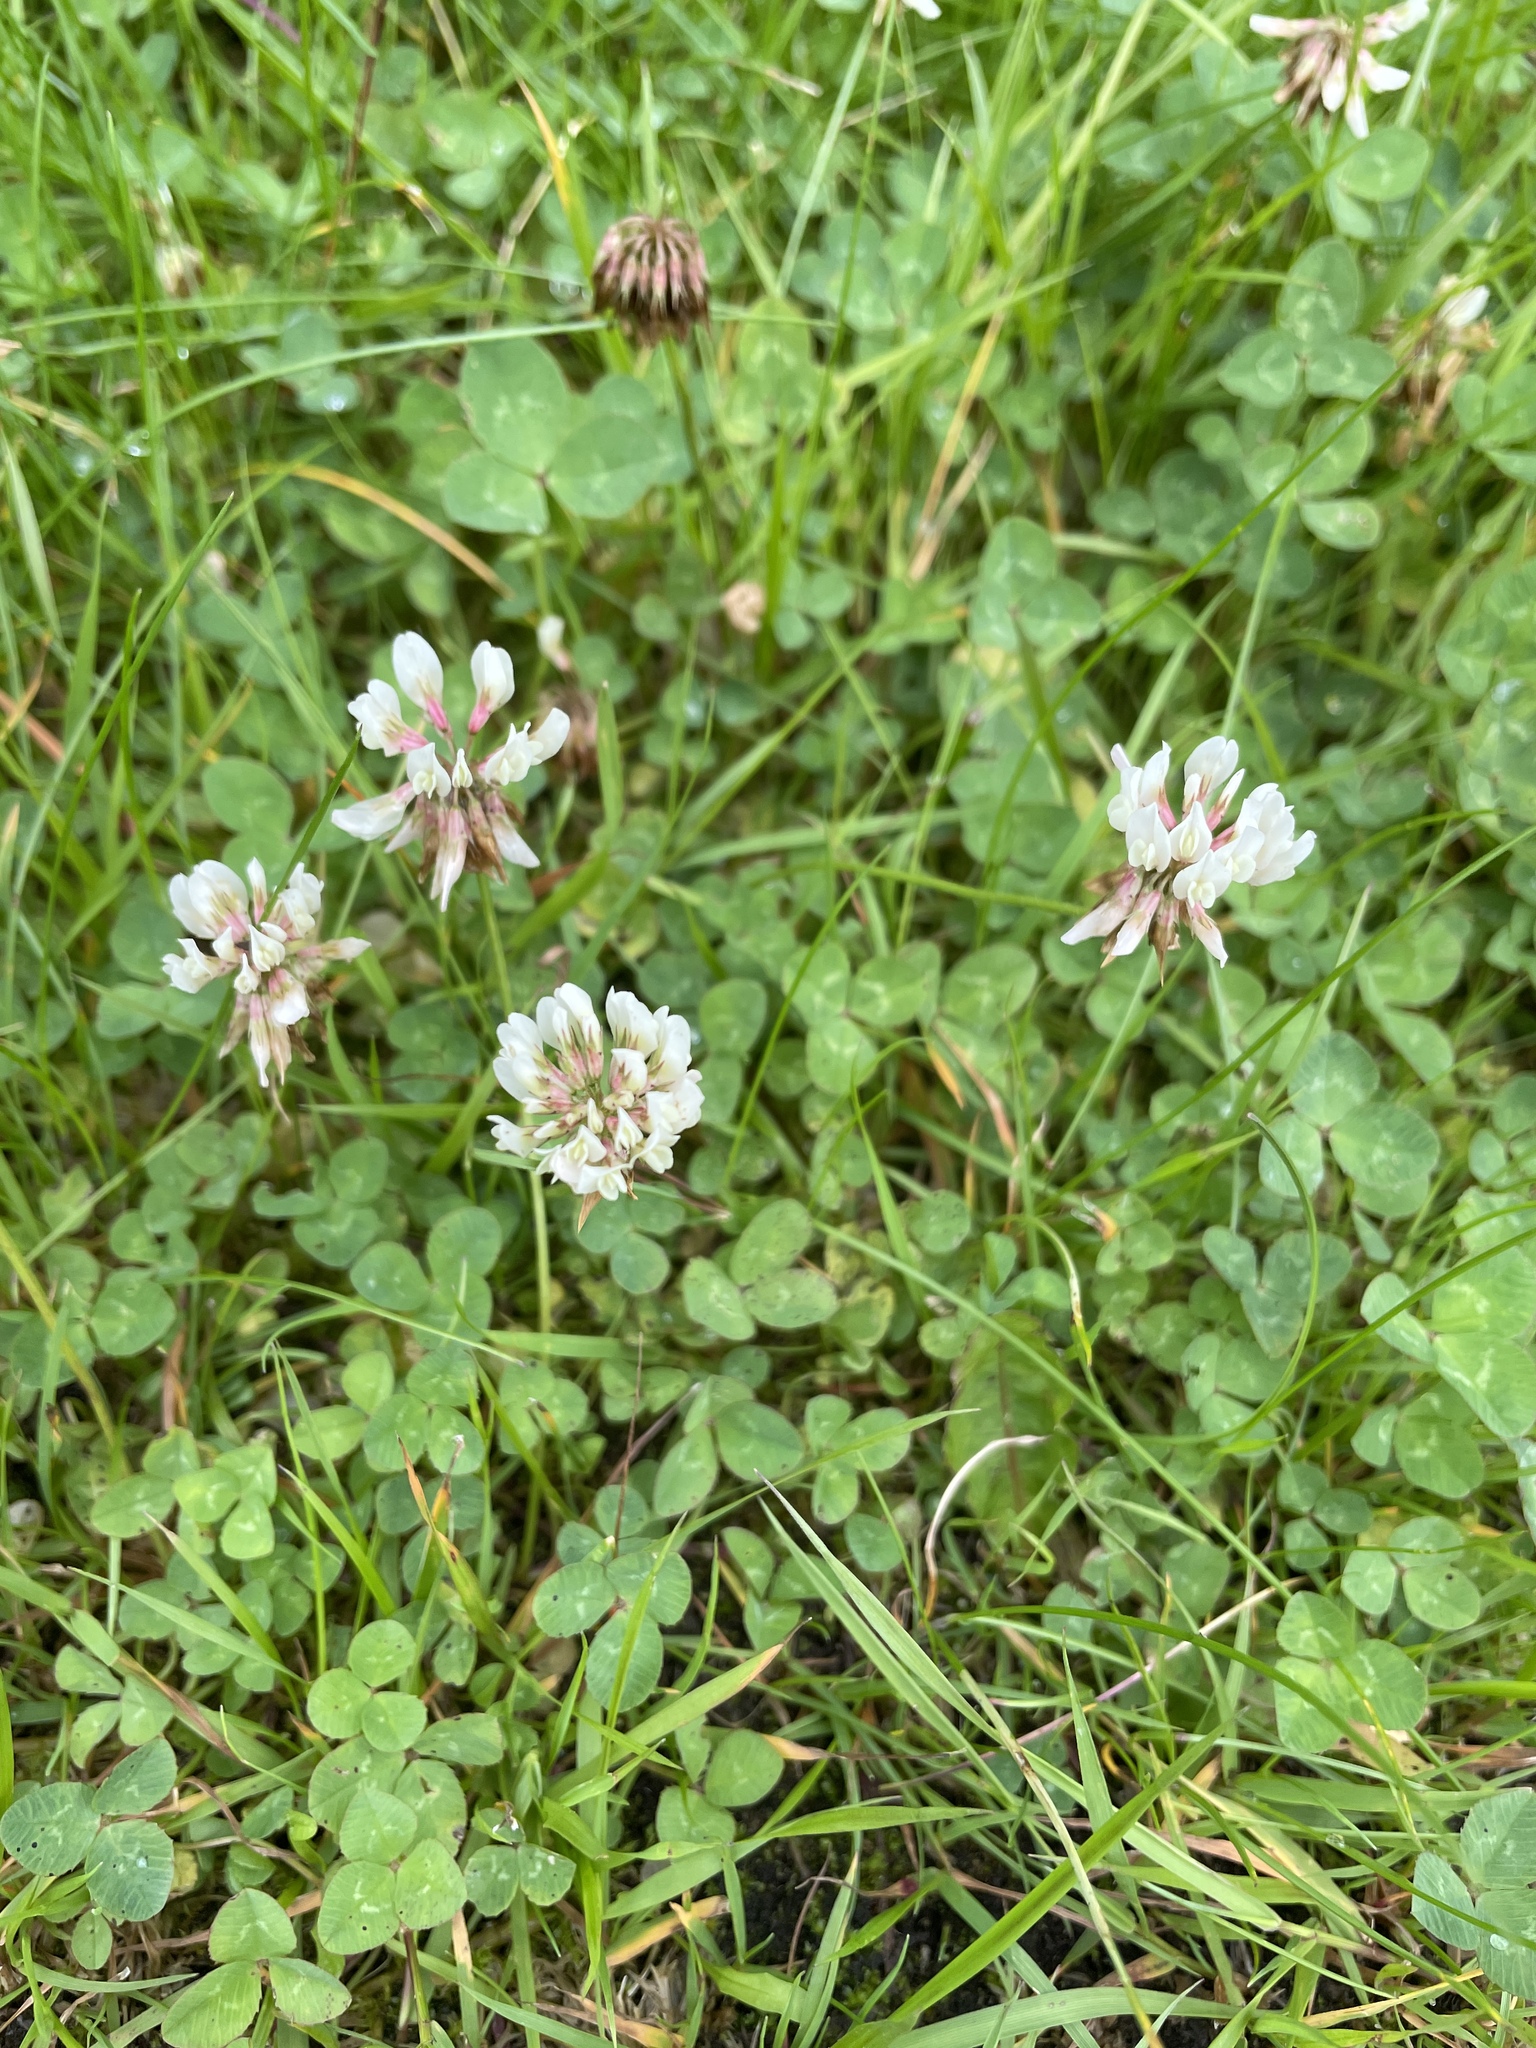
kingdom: Plantae
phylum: Tracheophyta
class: Magnoliopsida
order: Fabales
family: Fabaceae
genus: Trifolium
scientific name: Trifolium repens
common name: White clover
